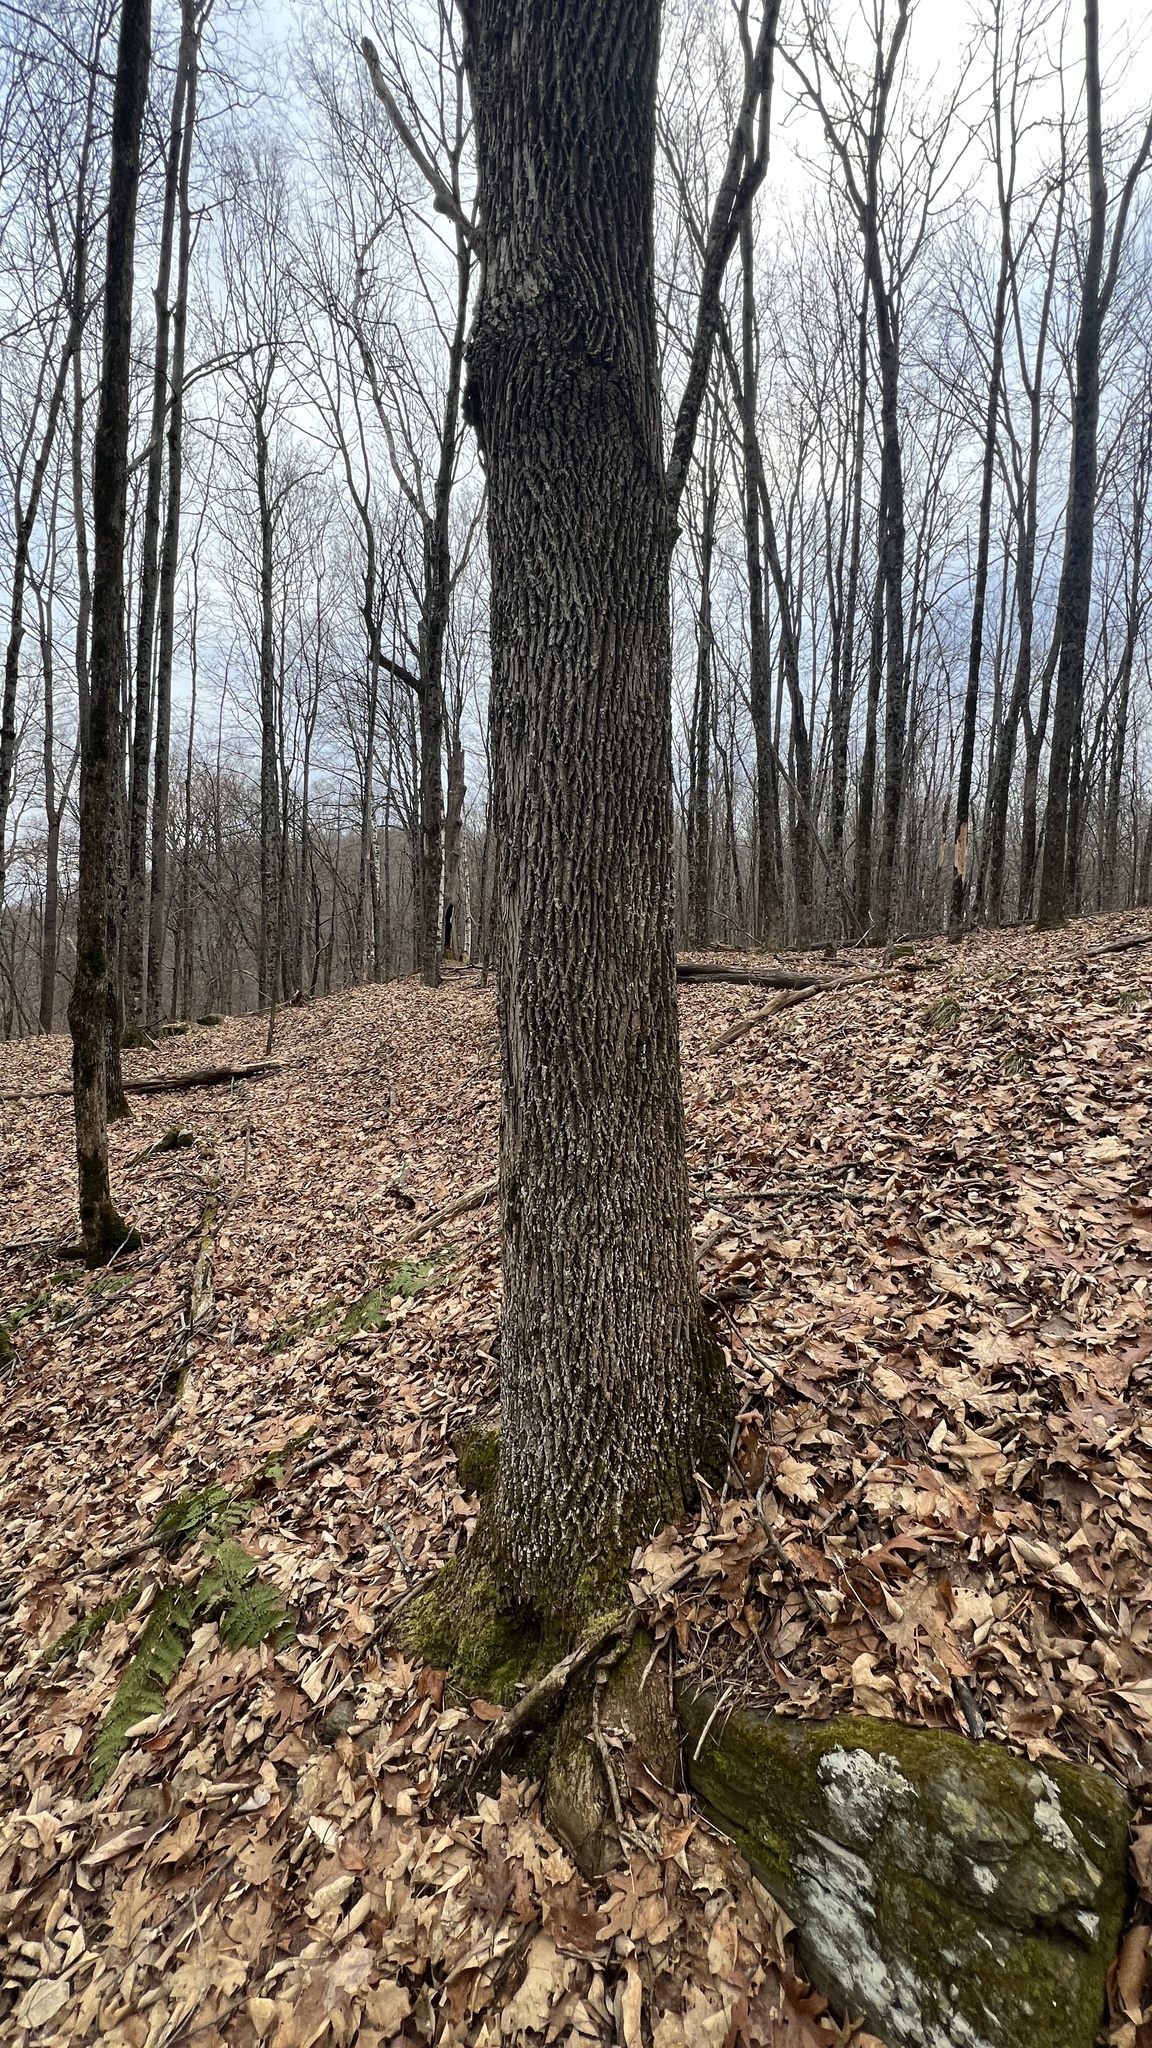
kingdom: Plantae
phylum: Tracheophyta
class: Magnoliopsida
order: Lamiales
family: Oleaceae
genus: Fraxinus
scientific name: Fraxinus americana
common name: White ash
